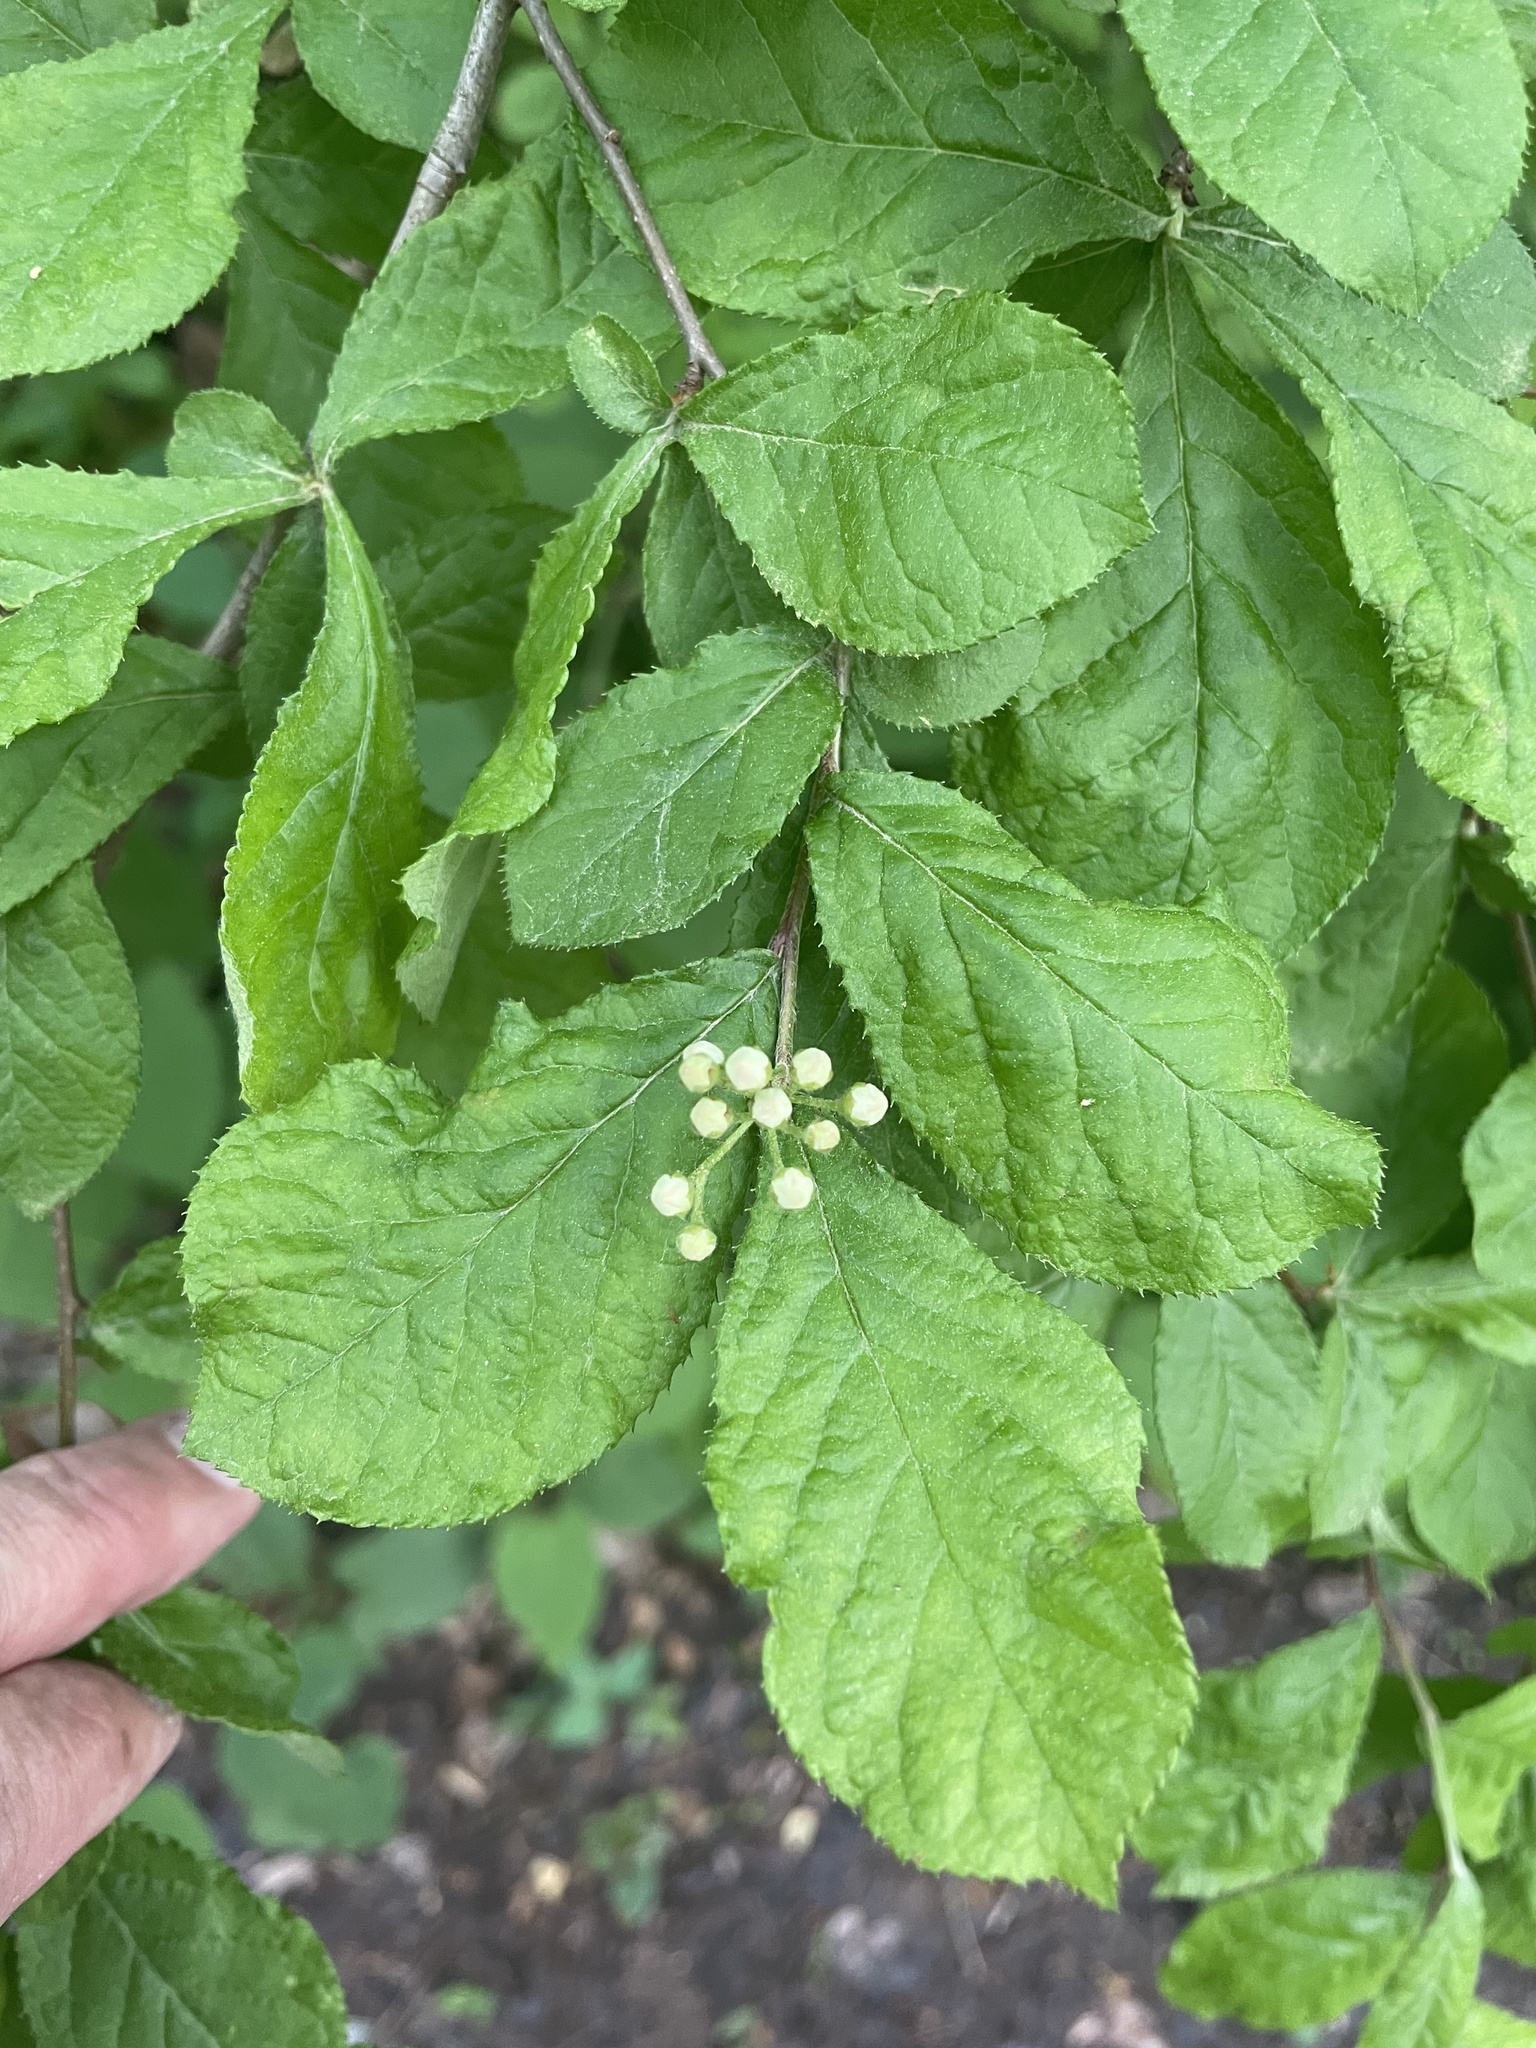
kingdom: Plantae
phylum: Tracheophyta
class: Magnoliopsida
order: Rosales
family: Rosaceae
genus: Pourthiaea
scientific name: Pourthiaea villosa
